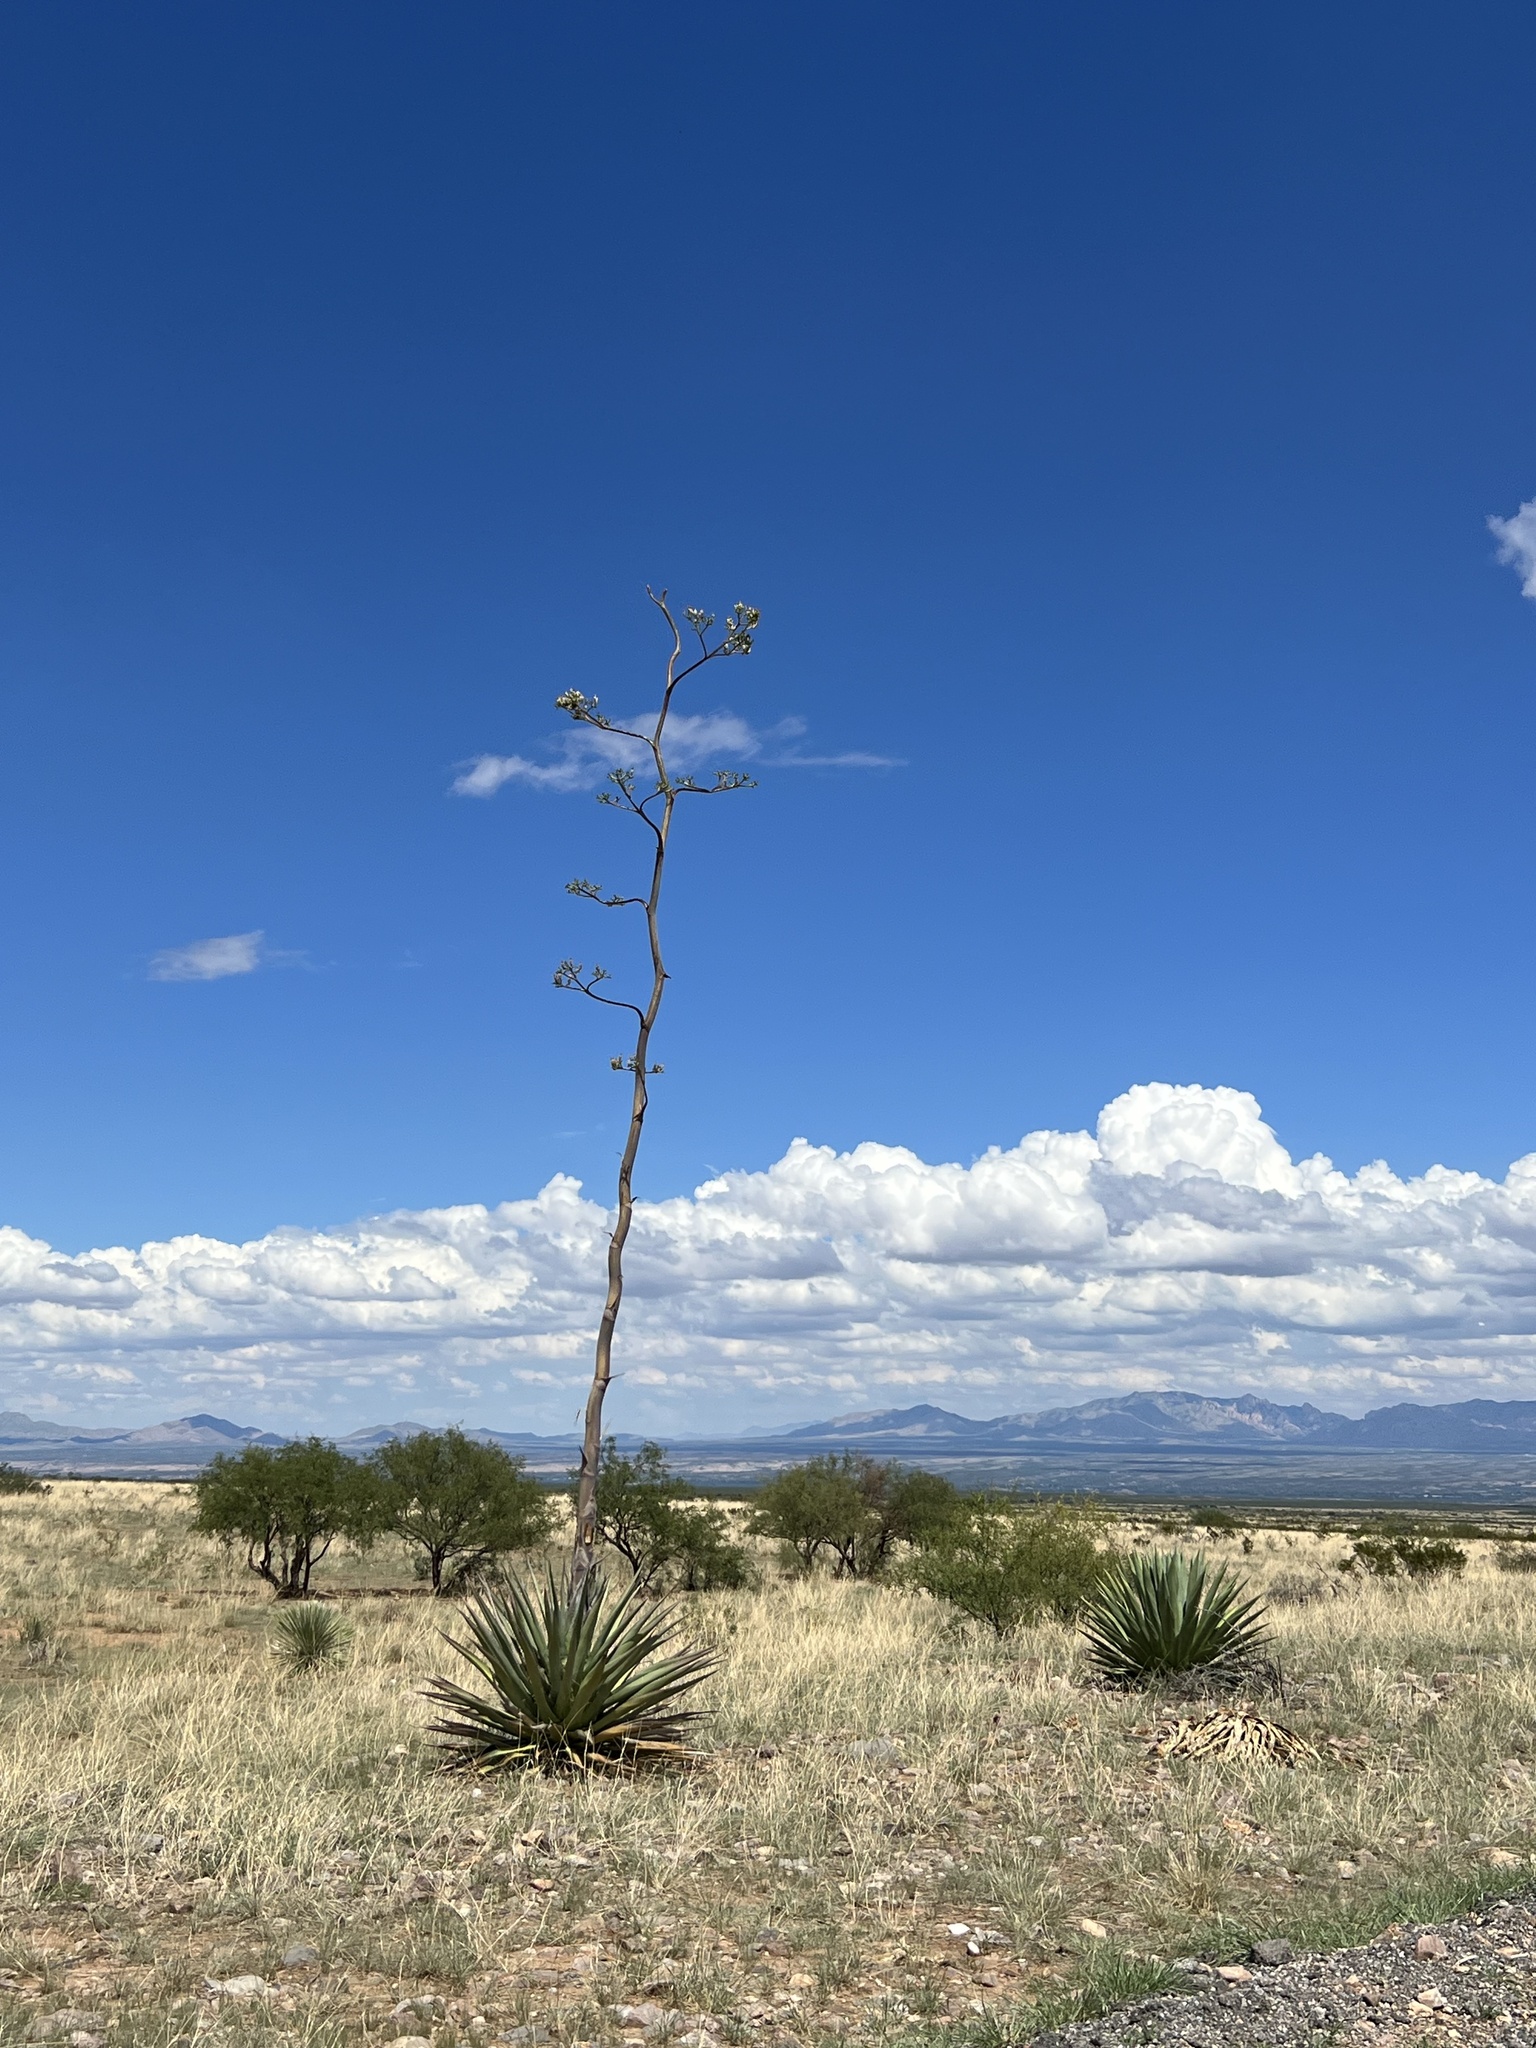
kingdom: Plantae
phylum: Tracheophyta
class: Liliopsida
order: Asparagales
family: Asparagaceae
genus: Agave
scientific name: Agave palmeri
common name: Palmer agave
